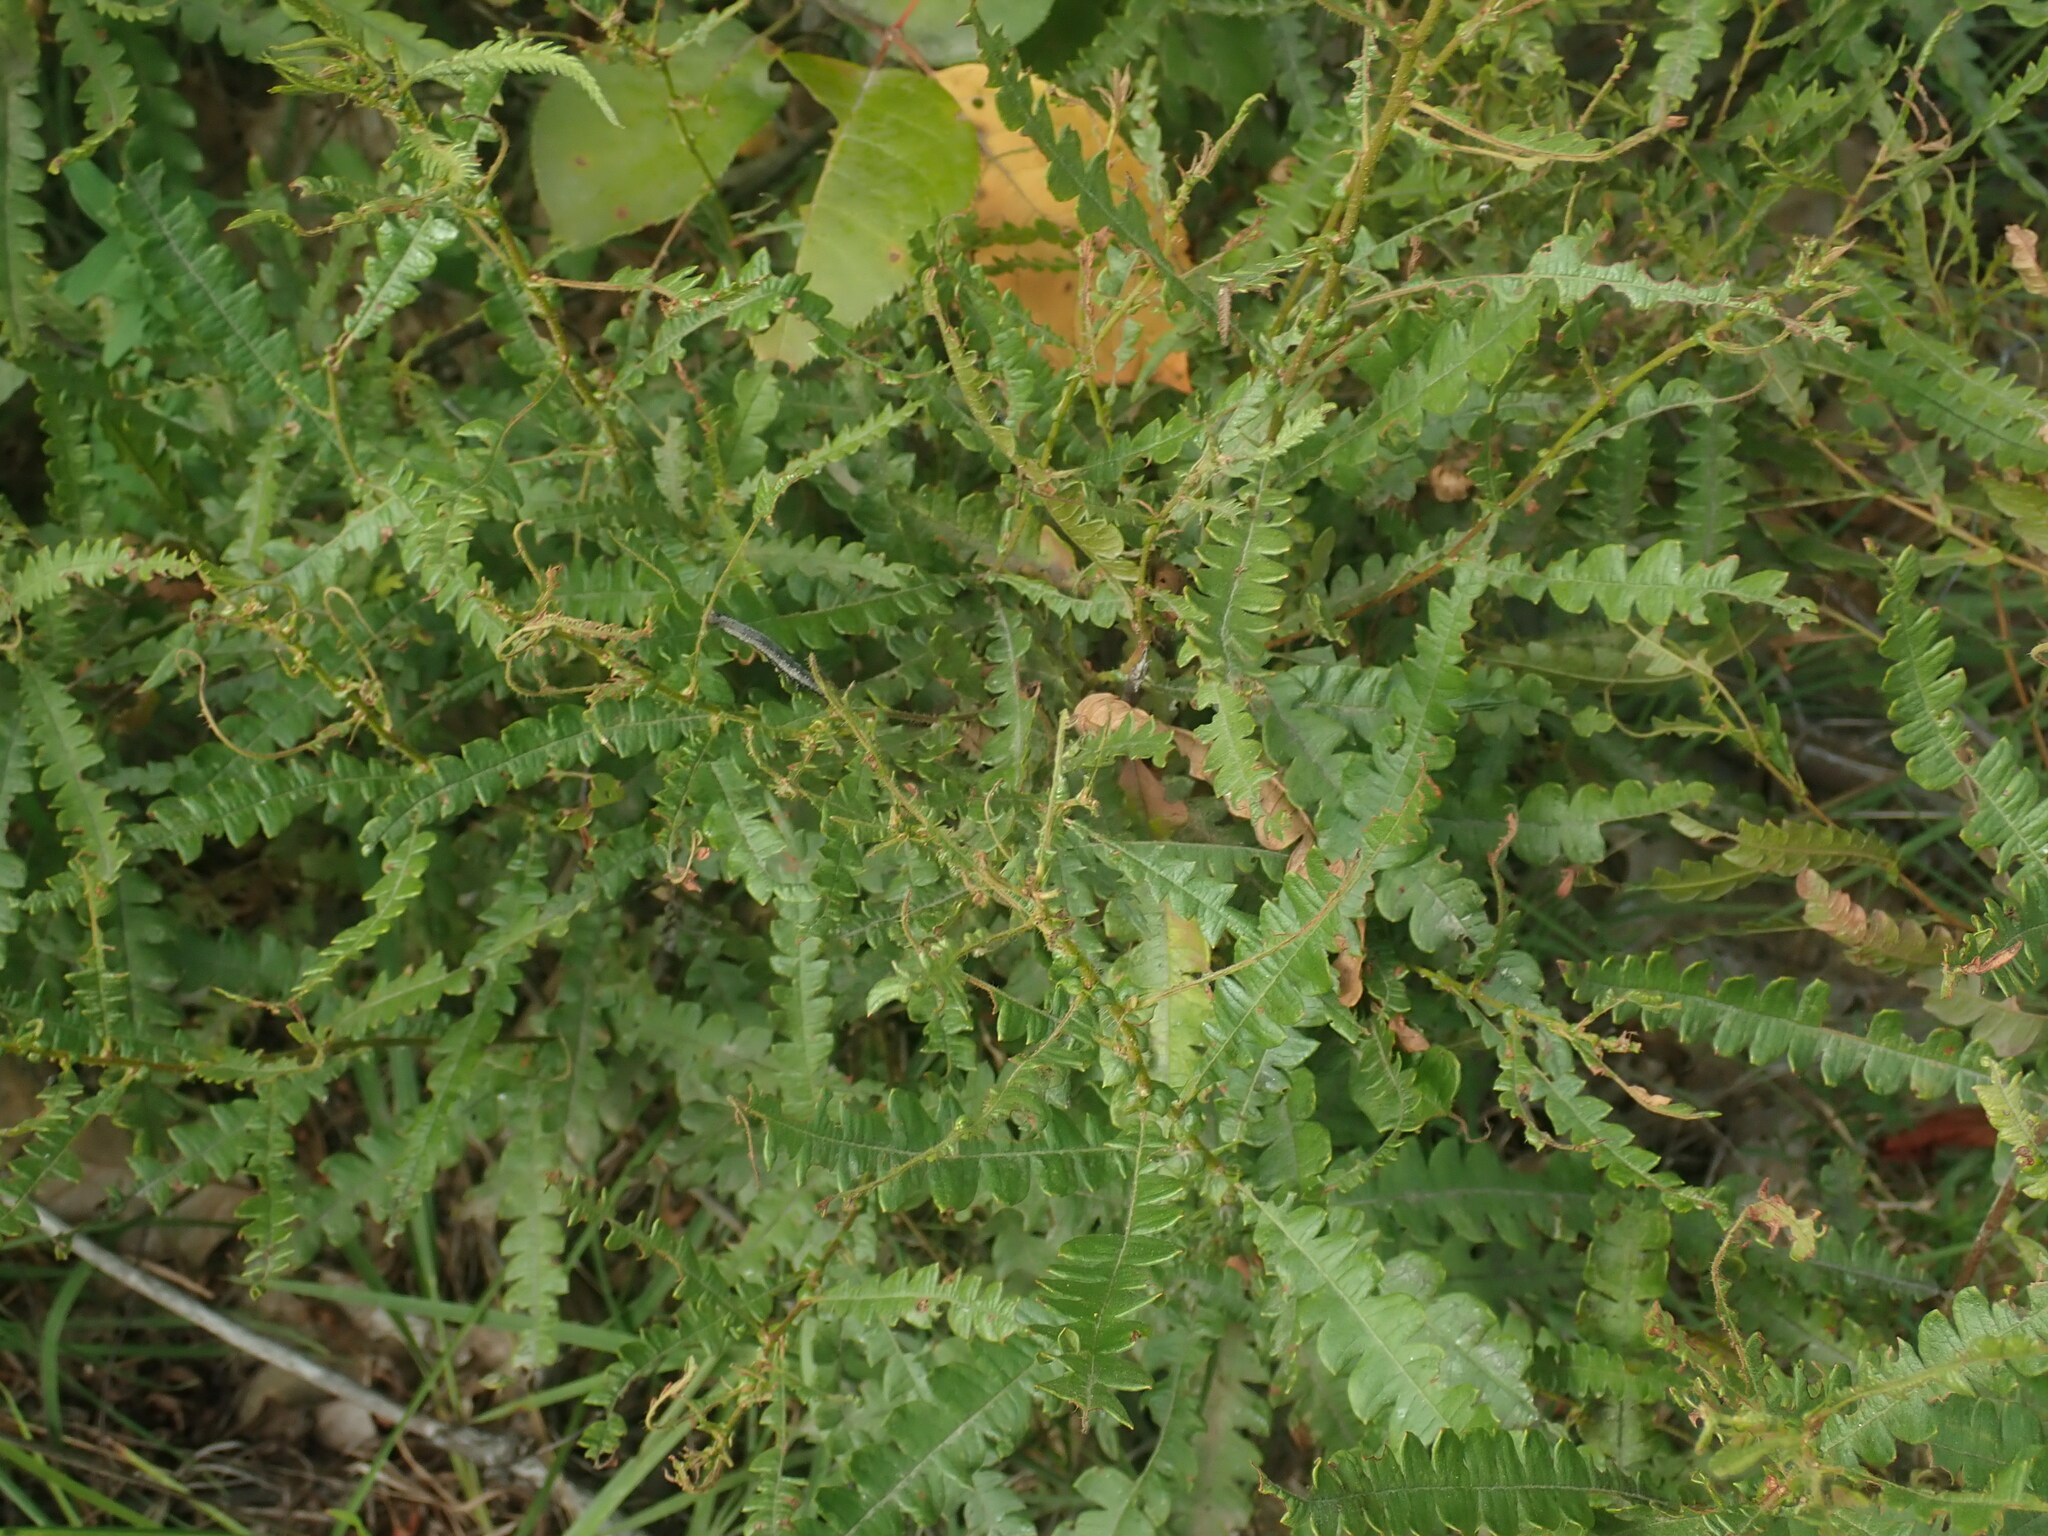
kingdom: Plantae
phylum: Tracheophyta
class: Magnoliopsida
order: Fagales
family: Myricaceae
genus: Comptonia
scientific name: Comptonia peregrina
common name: Sweet-fern
